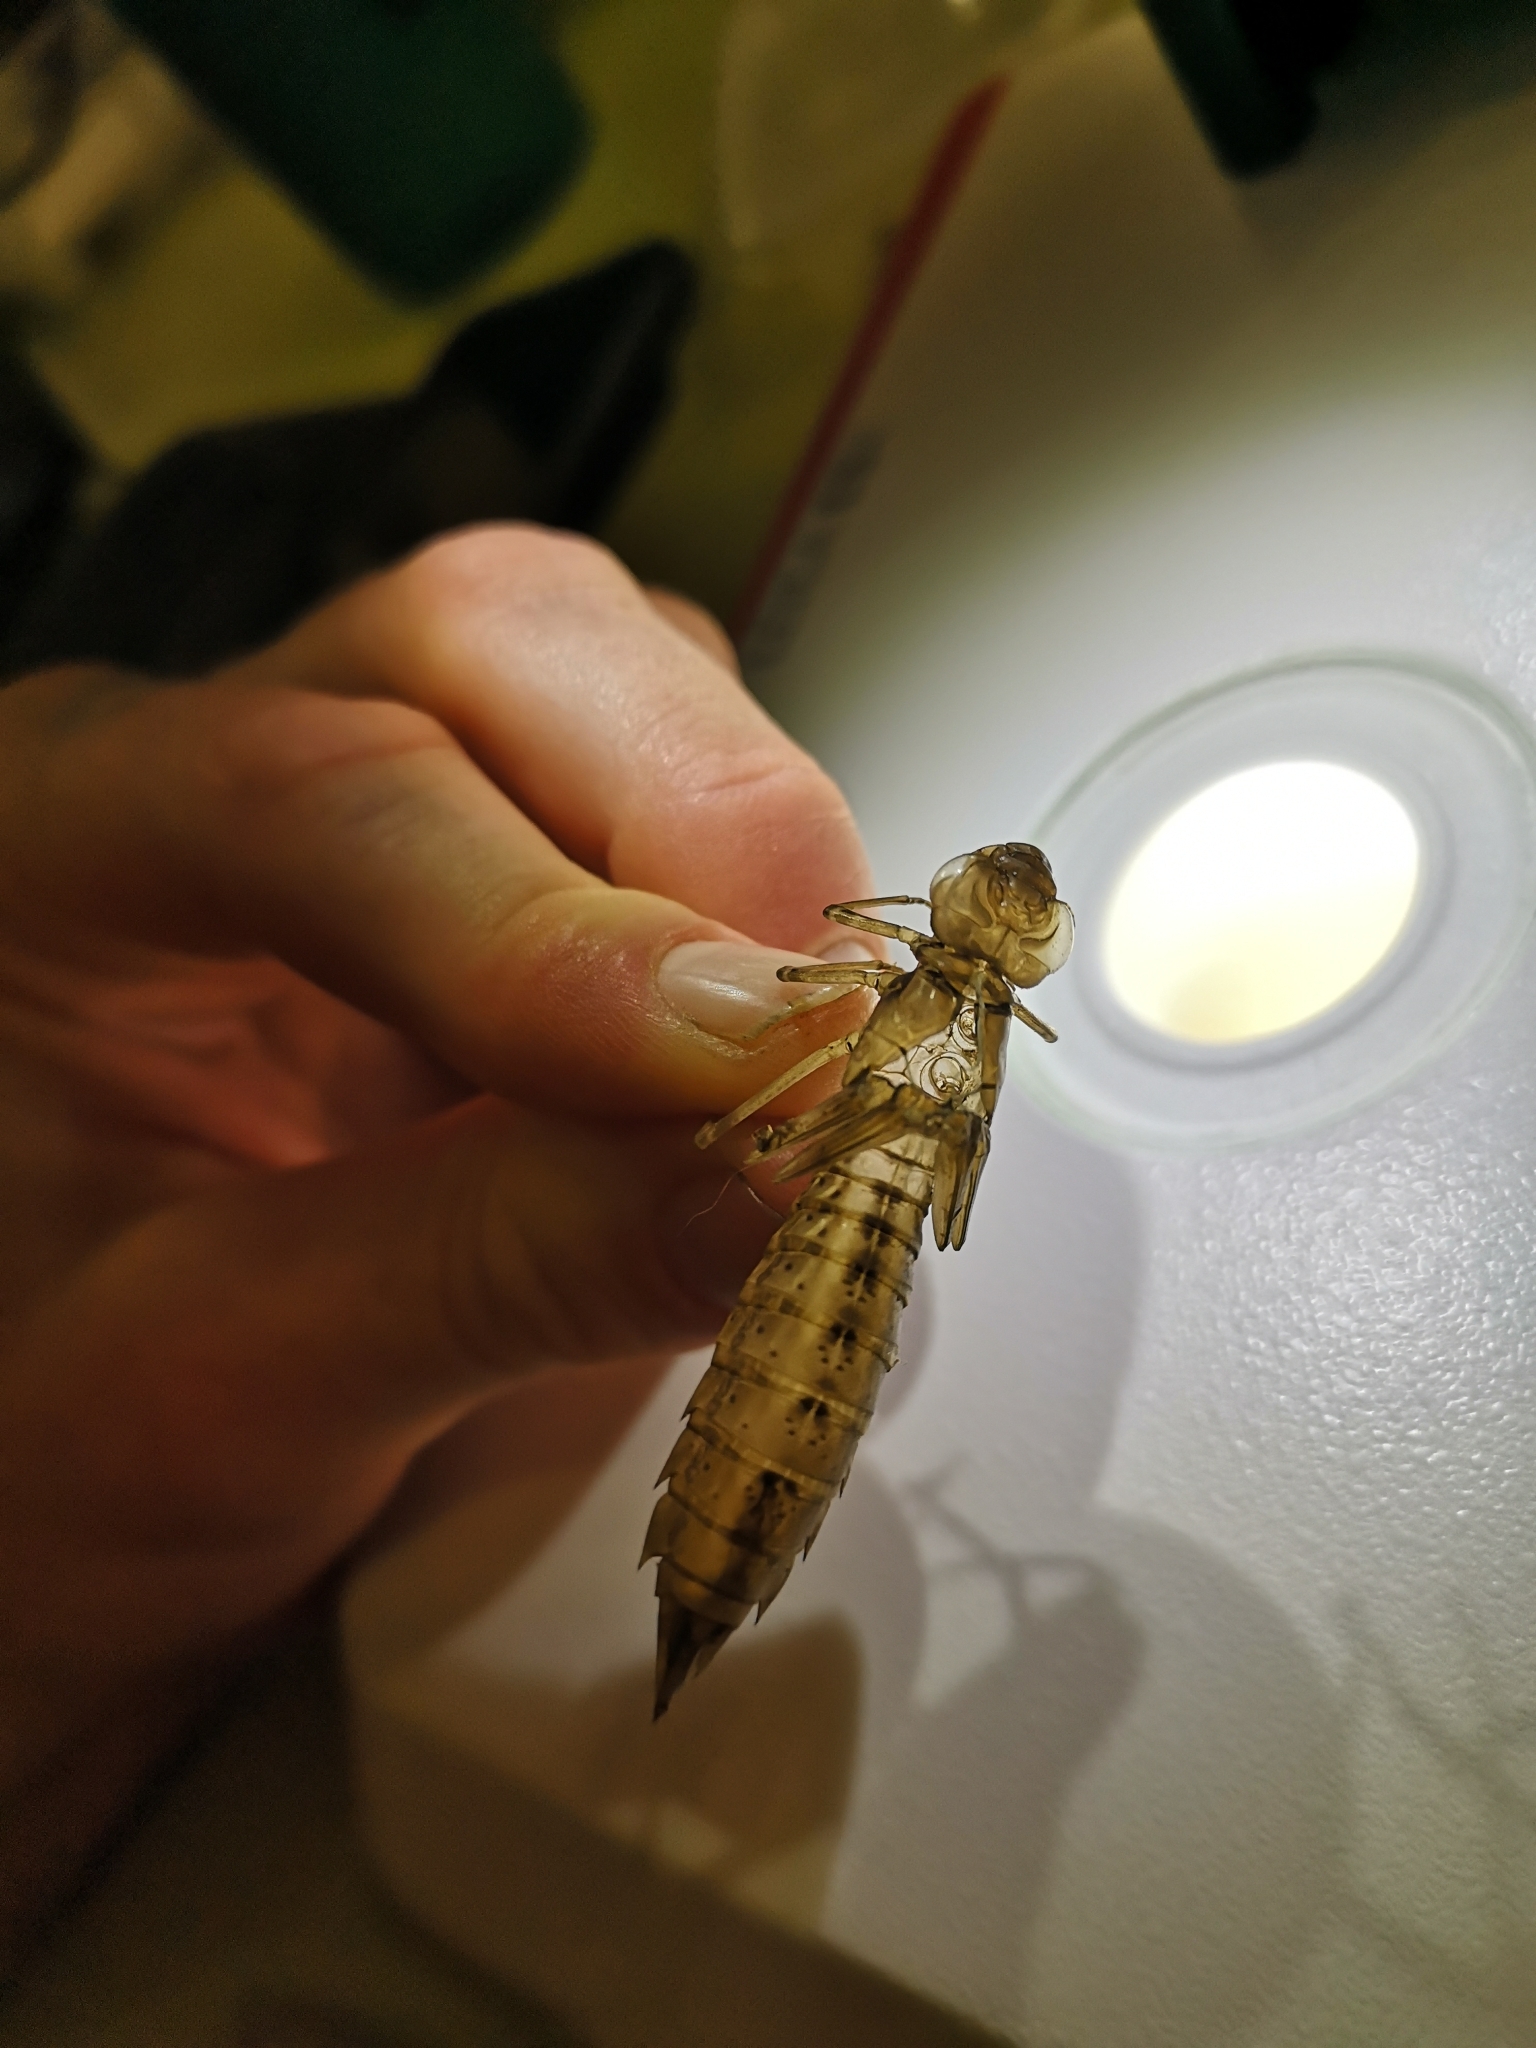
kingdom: Animalia
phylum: Arthropoda
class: Insecta
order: Odonata
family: Aeshnidae
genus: Anax
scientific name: Anax imperator
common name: Emperor dragonfly
